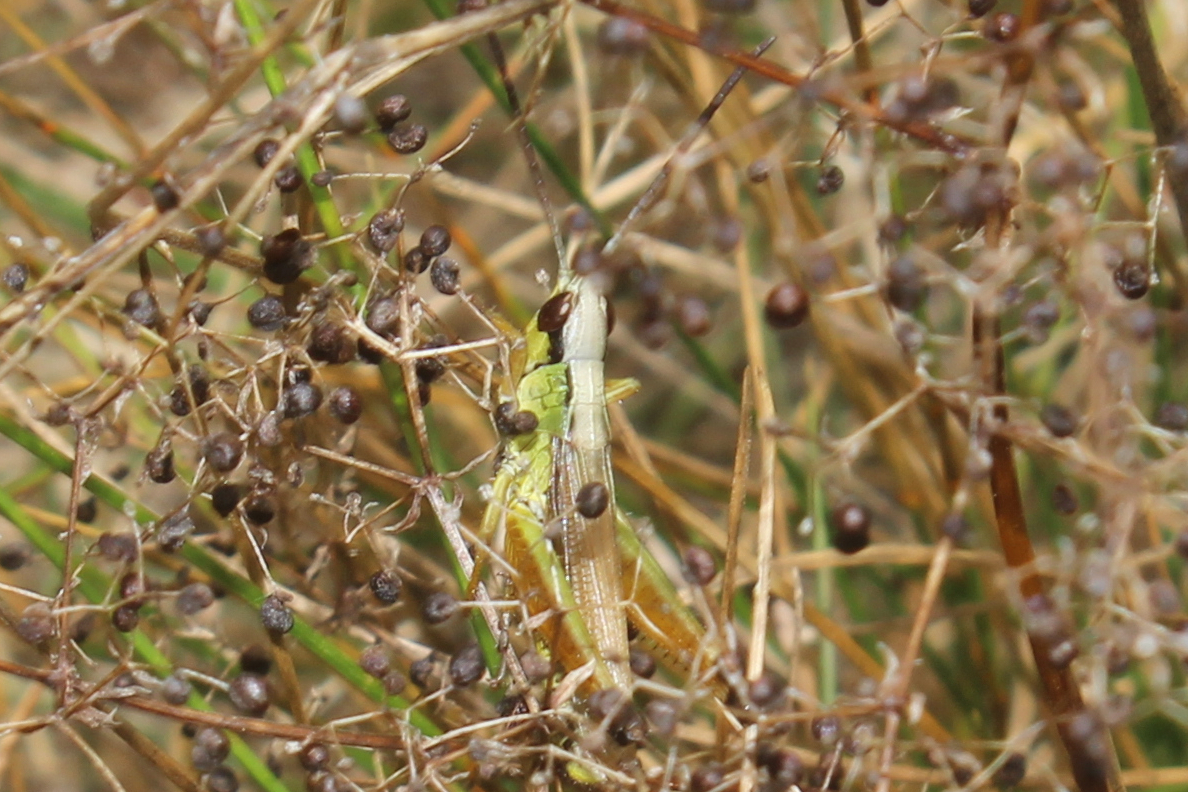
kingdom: Animalia
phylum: Arthropoda
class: Insecta
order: Orthoptera
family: Acrididae
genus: Pseudochorthippus
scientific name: Pseudochorthippus curtipennis
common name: Marsh meadow grasshopper
